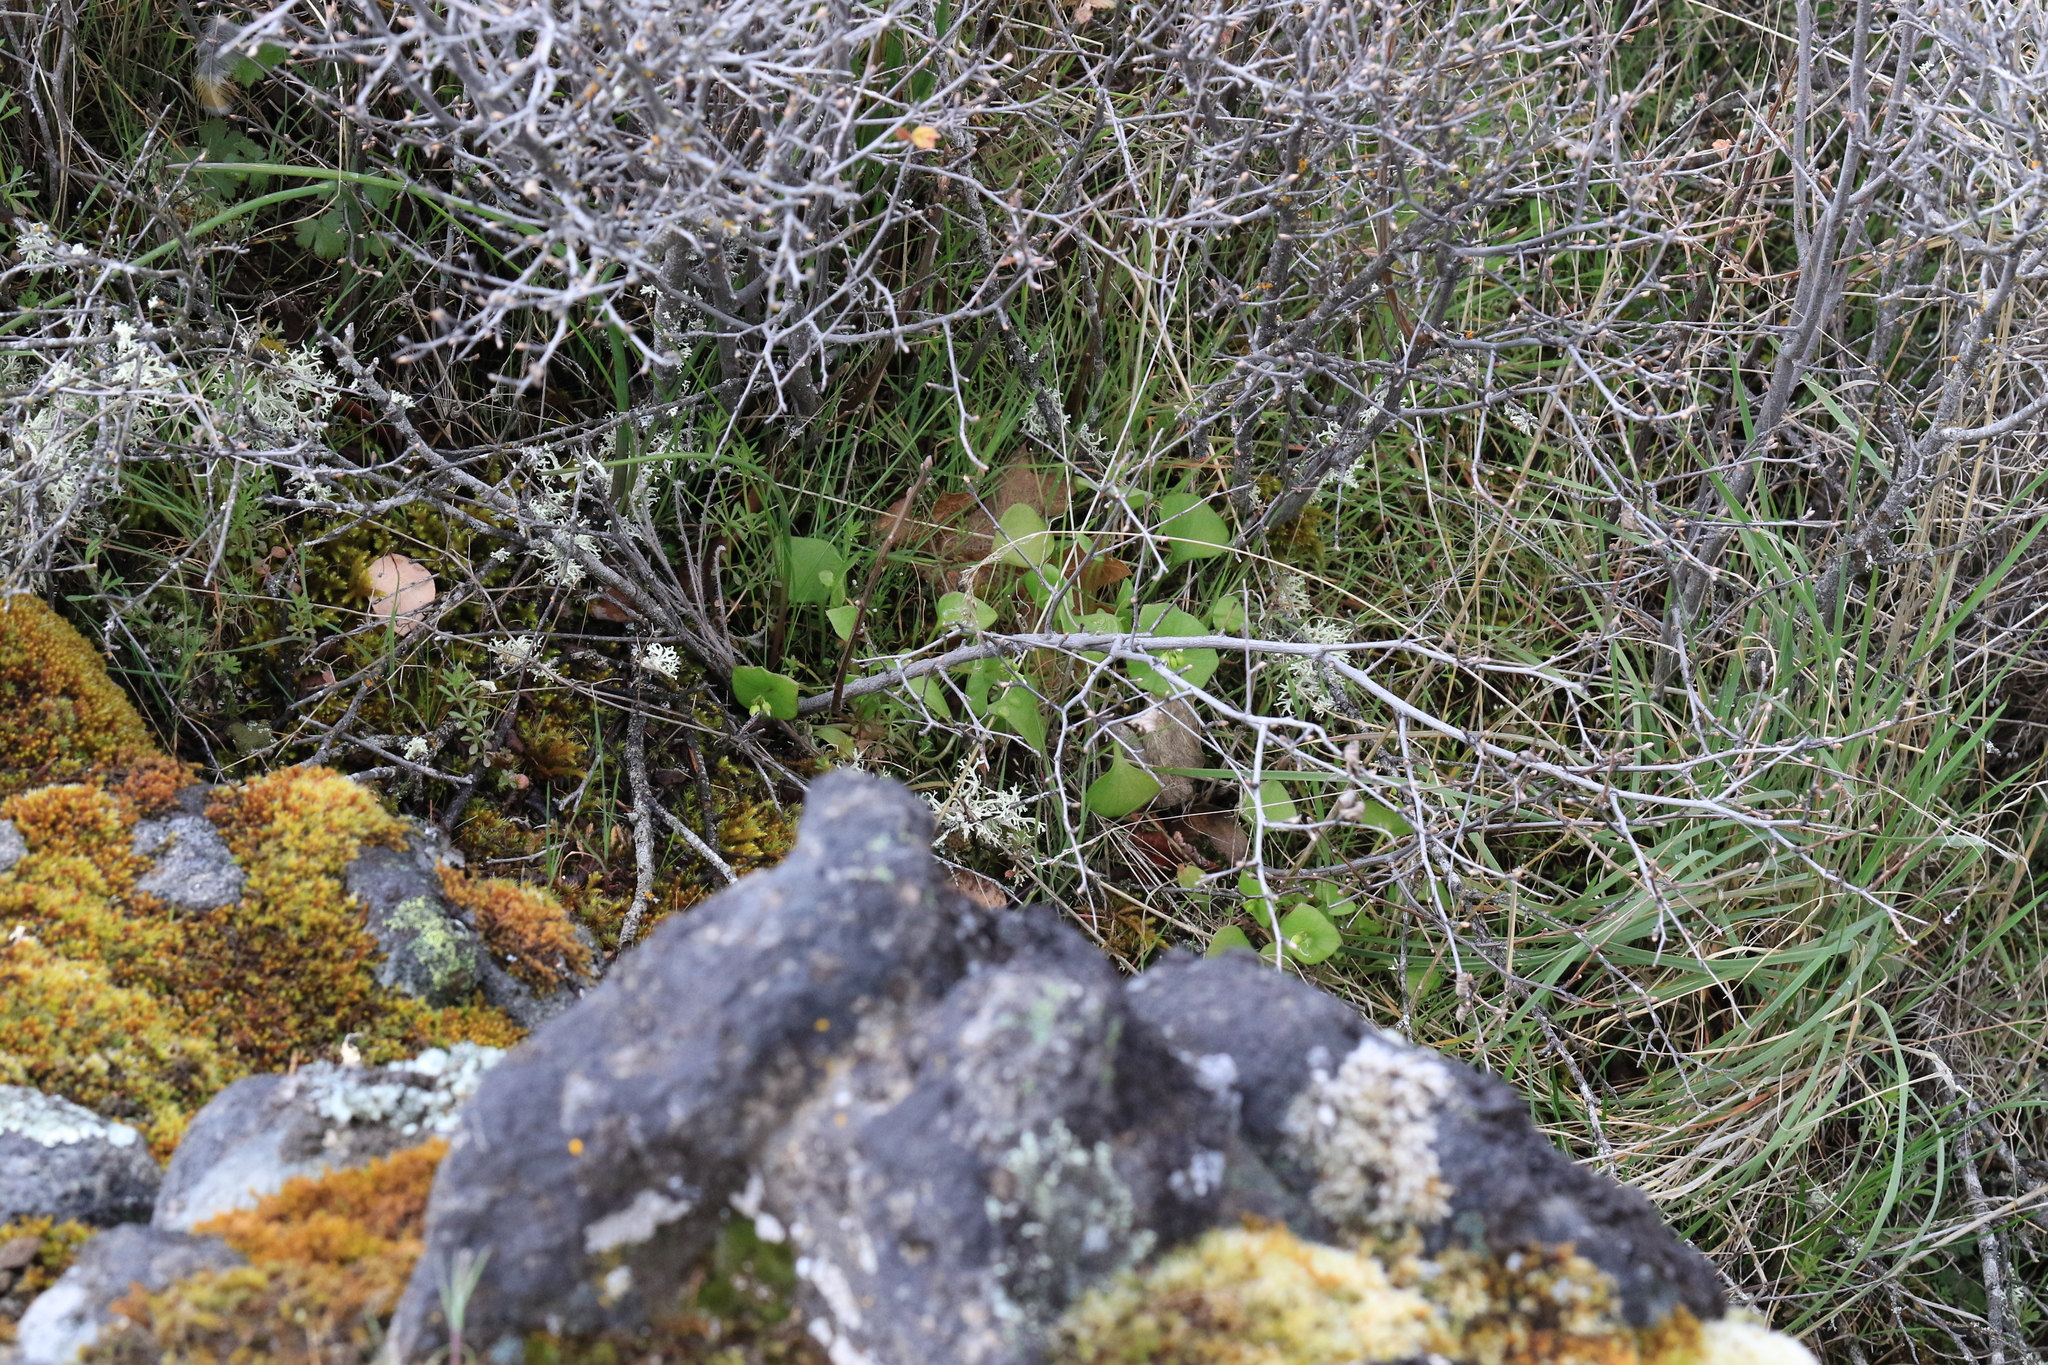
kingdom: Plantae
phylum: Tracheophyta
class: Magnoliopsida
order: Caryophyllales
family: Montiaceae
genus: Claytonia
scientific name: Claytonia perfoliata
